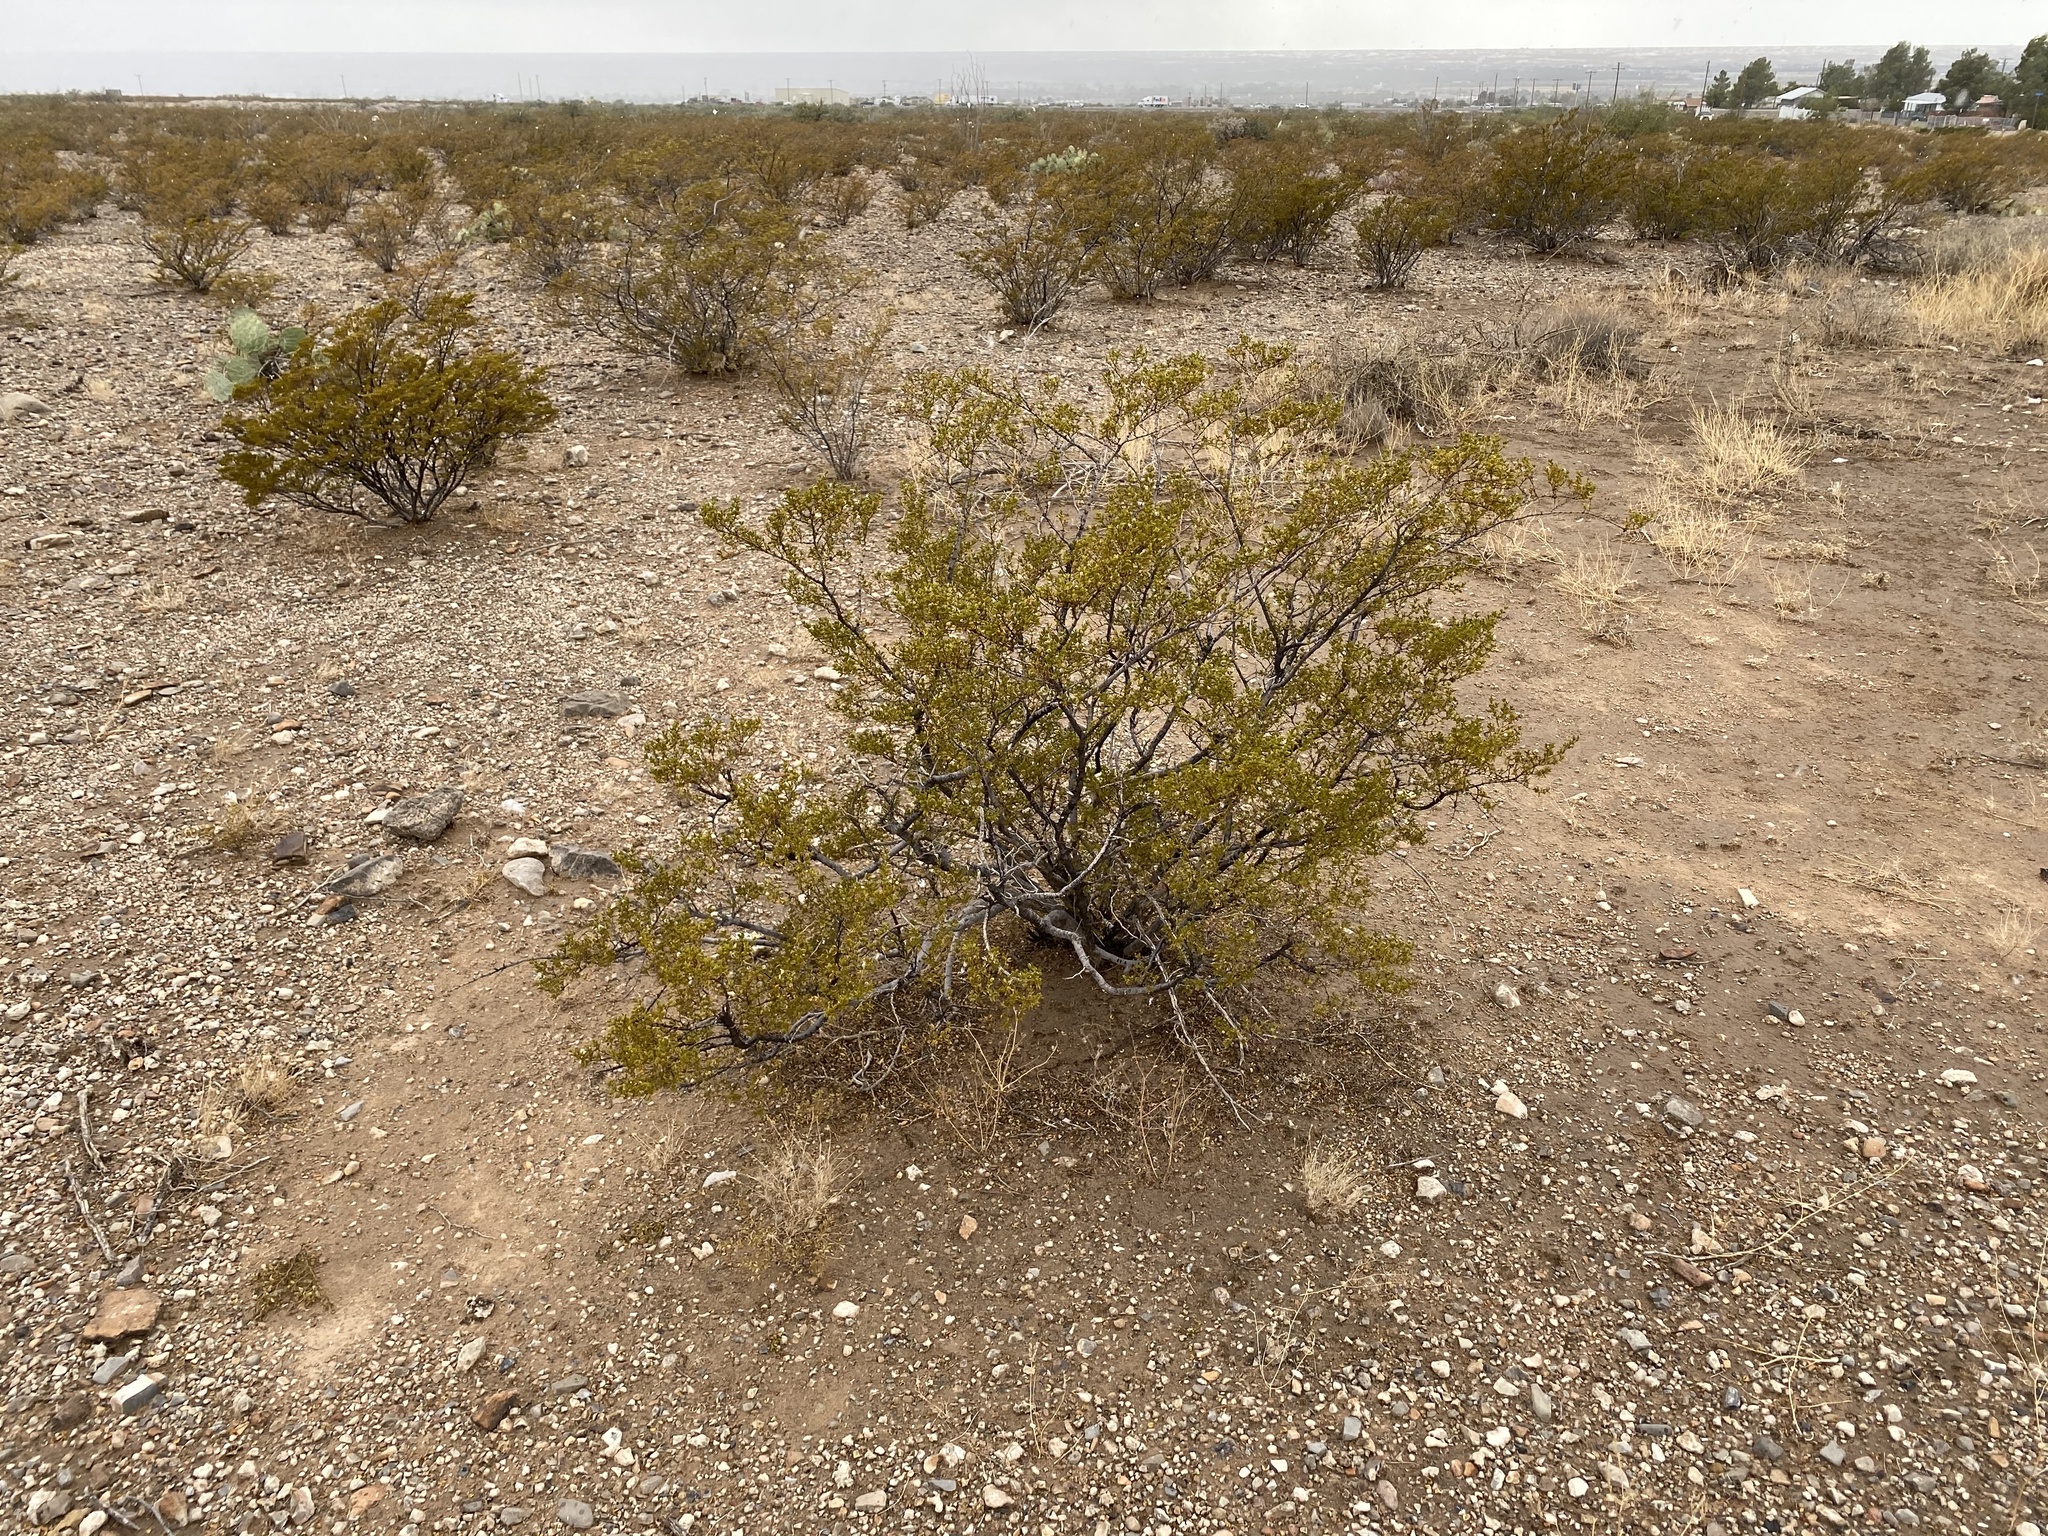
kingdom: Plantae
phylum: Tracheophyta
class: Magnoliopsida
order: Zygophyllales
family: Zygophyllaceae
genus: Larrea
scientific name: Larrea tridentata
